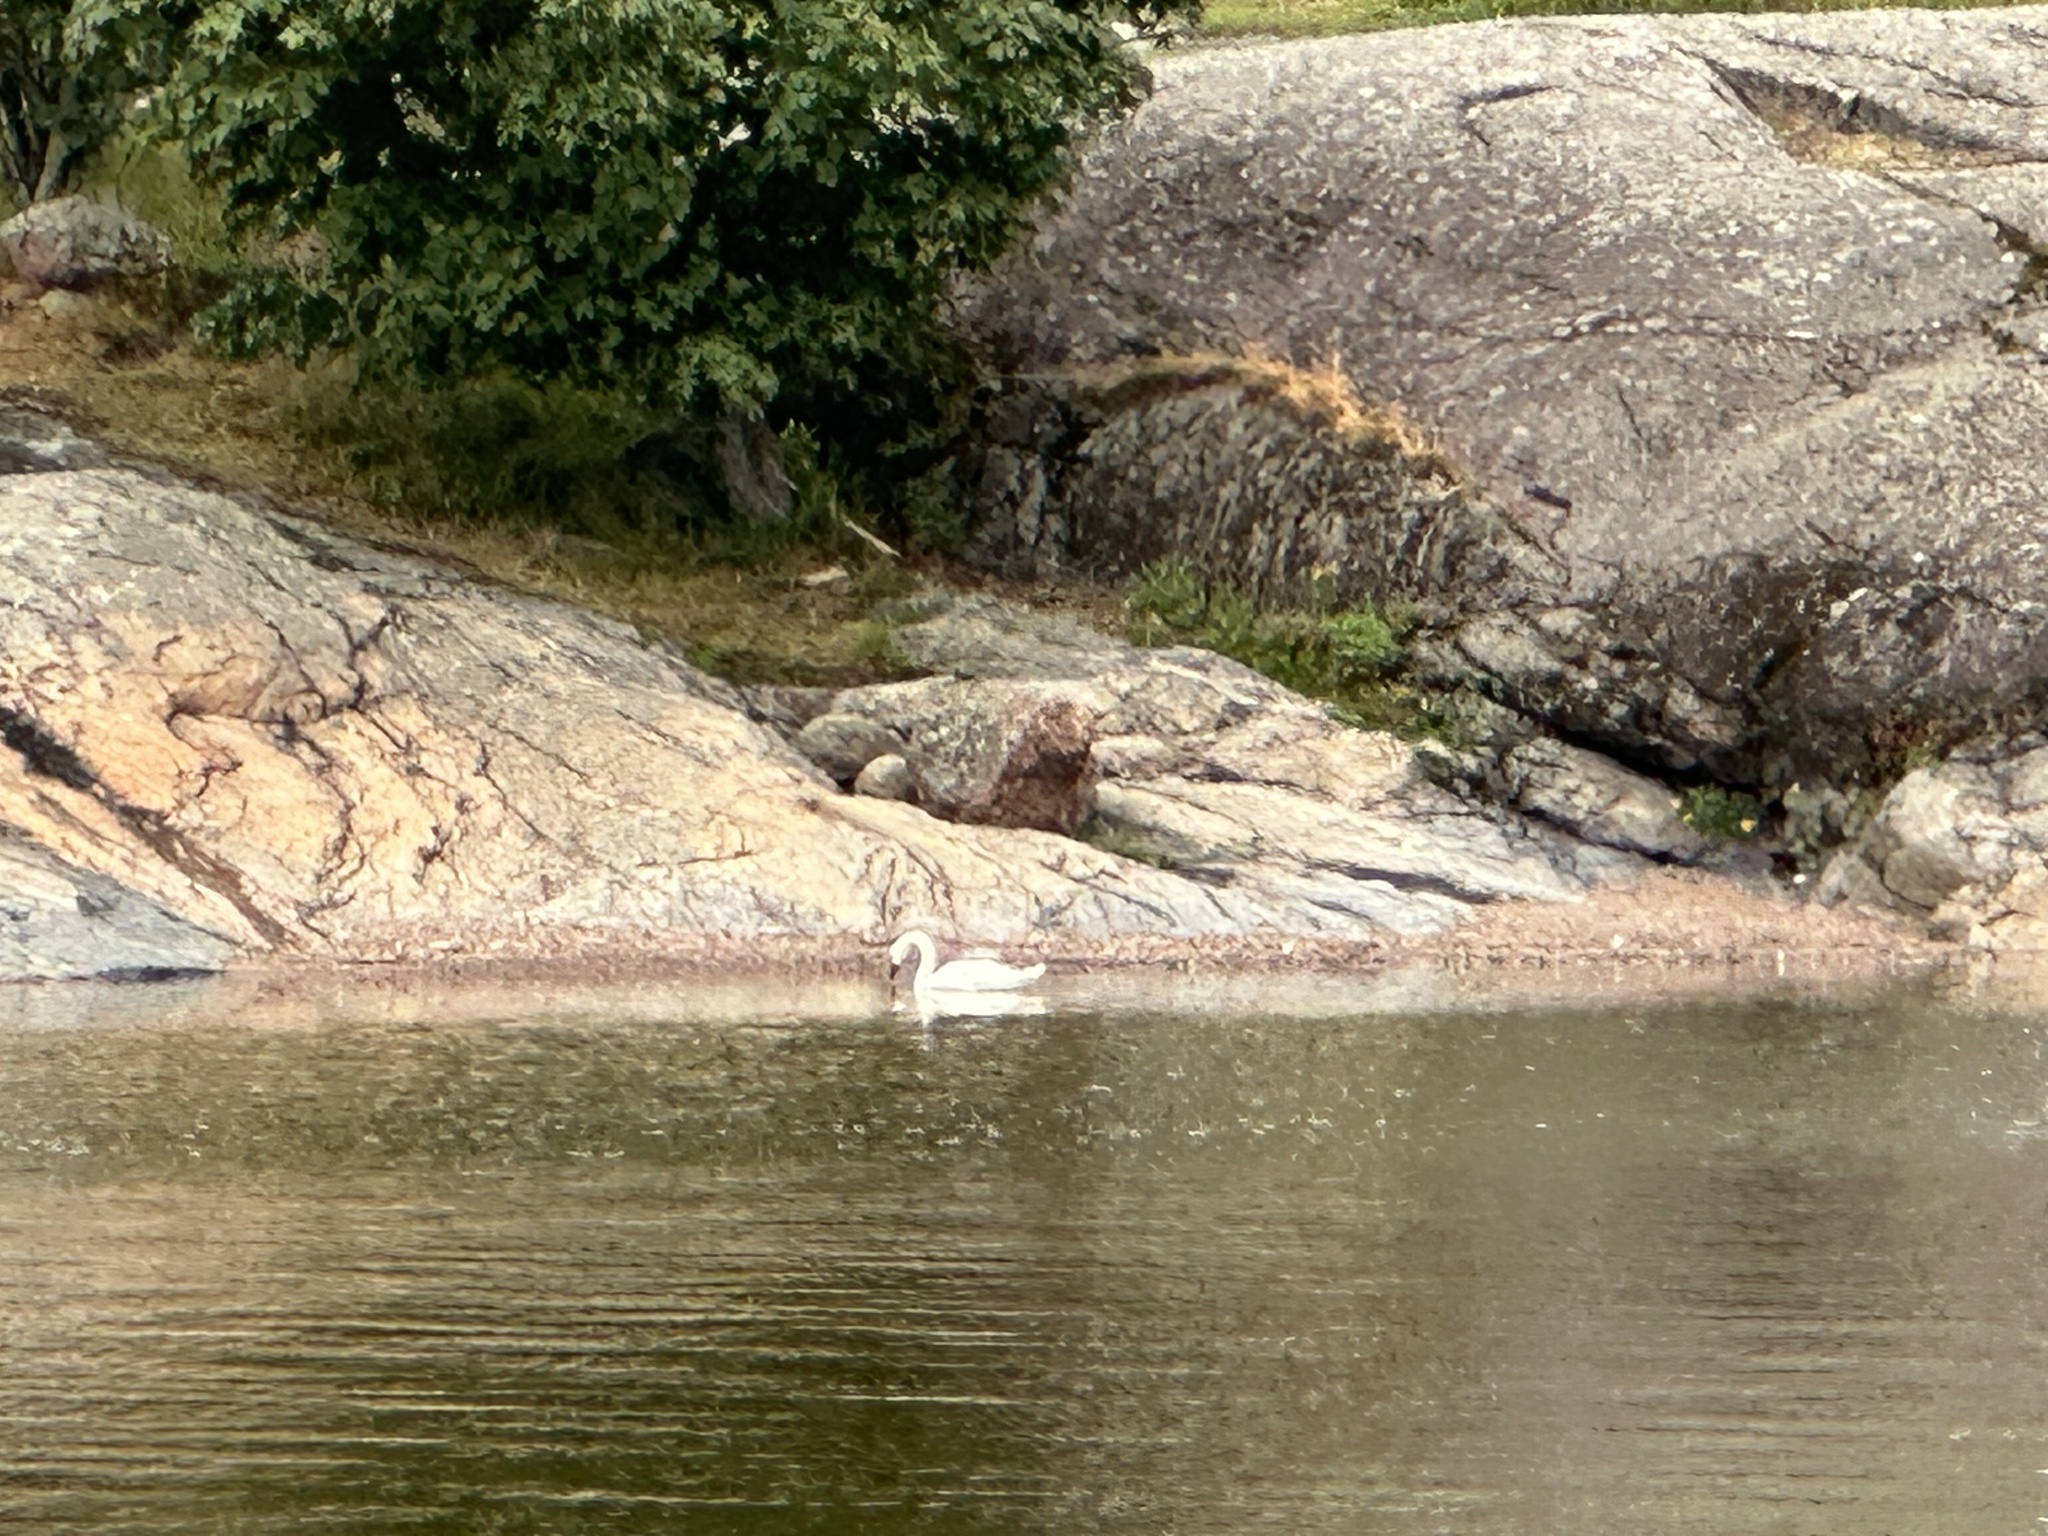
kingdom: Animalia
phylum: Chordata
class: Aves
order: Anseriformes
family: Anatidae
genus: Cygnus
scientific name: Cygnus olor
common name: Mute swan
